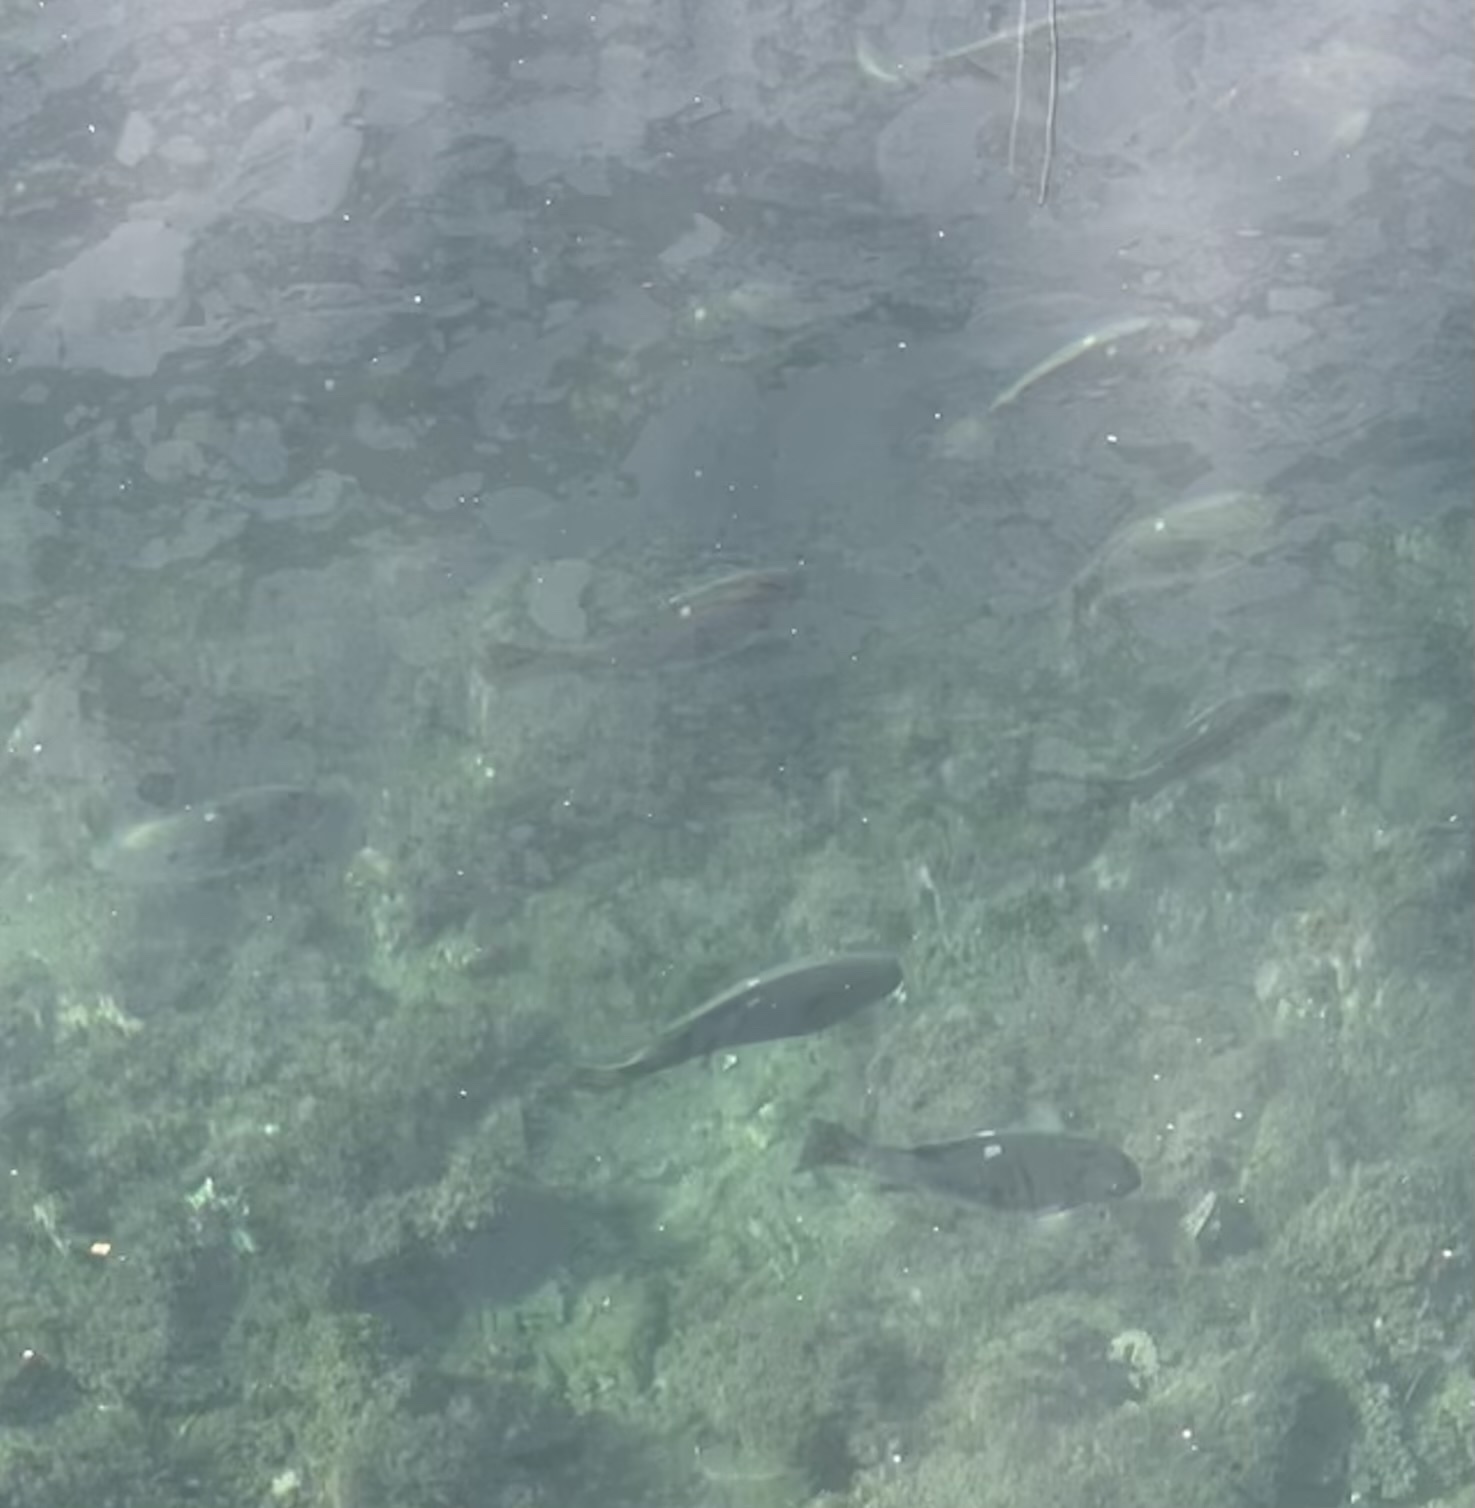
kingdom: Animalia
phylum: Chordata
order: Perciformes
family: Kyphosidae
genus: Girella
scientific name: Girella nigricans
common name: Opaleye
